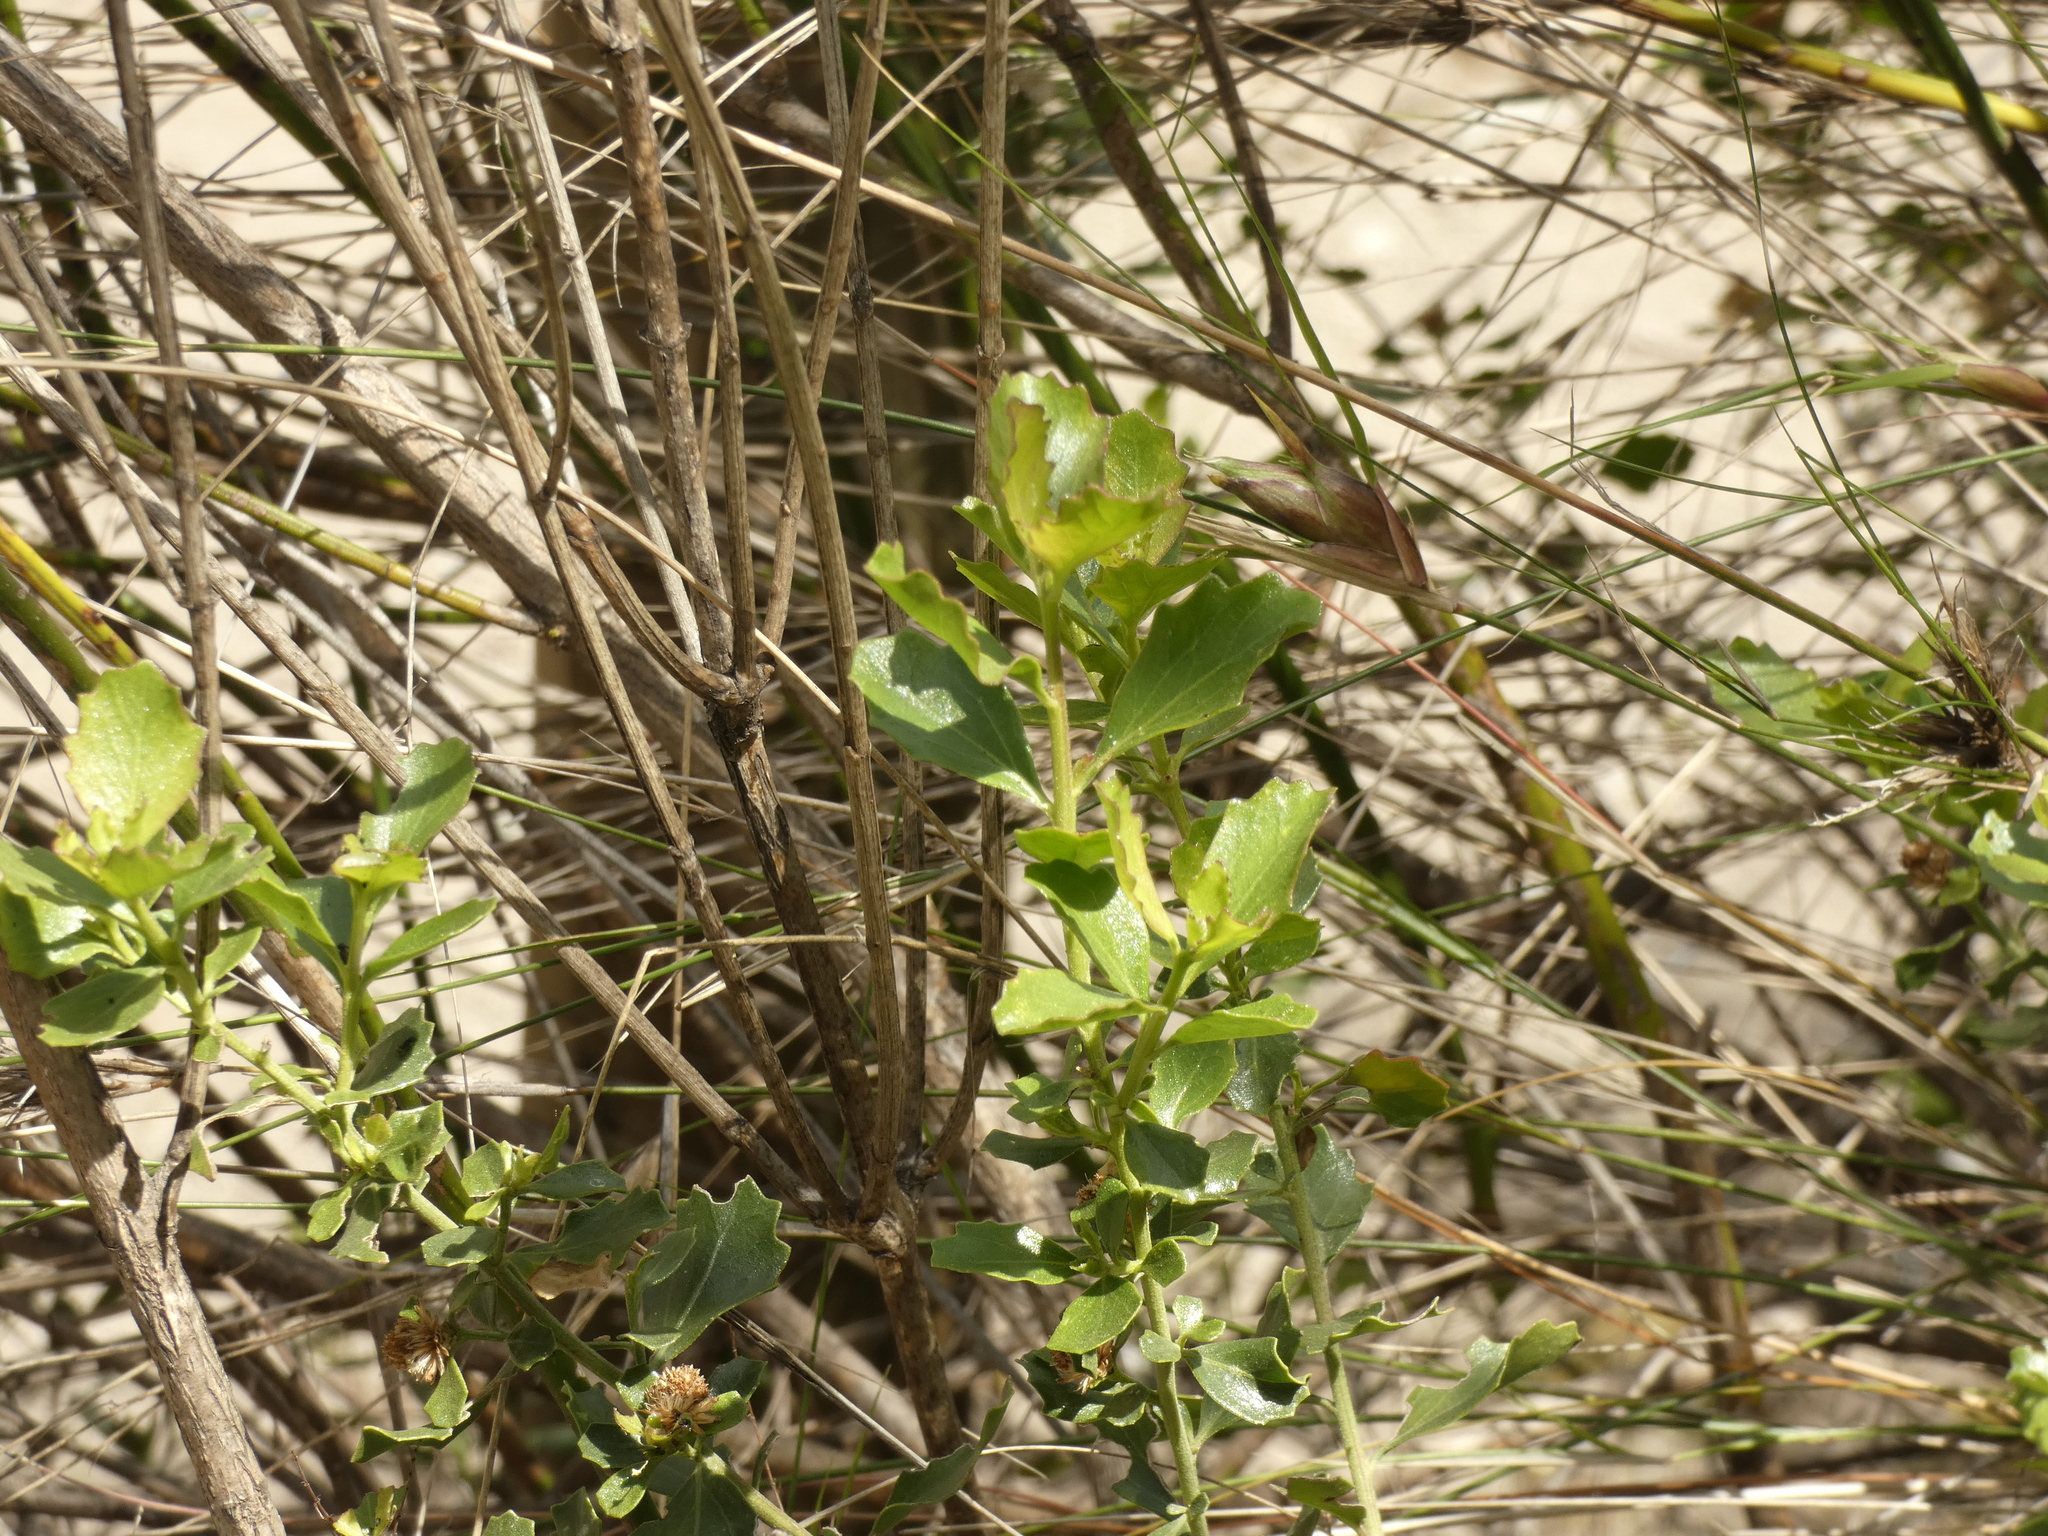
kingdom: Plantae
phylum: Tracheophyta
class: Magnoliopsida
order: Asterales
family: Asteraceae
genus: Baccharis
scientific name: Baccharis rhomboidalis
